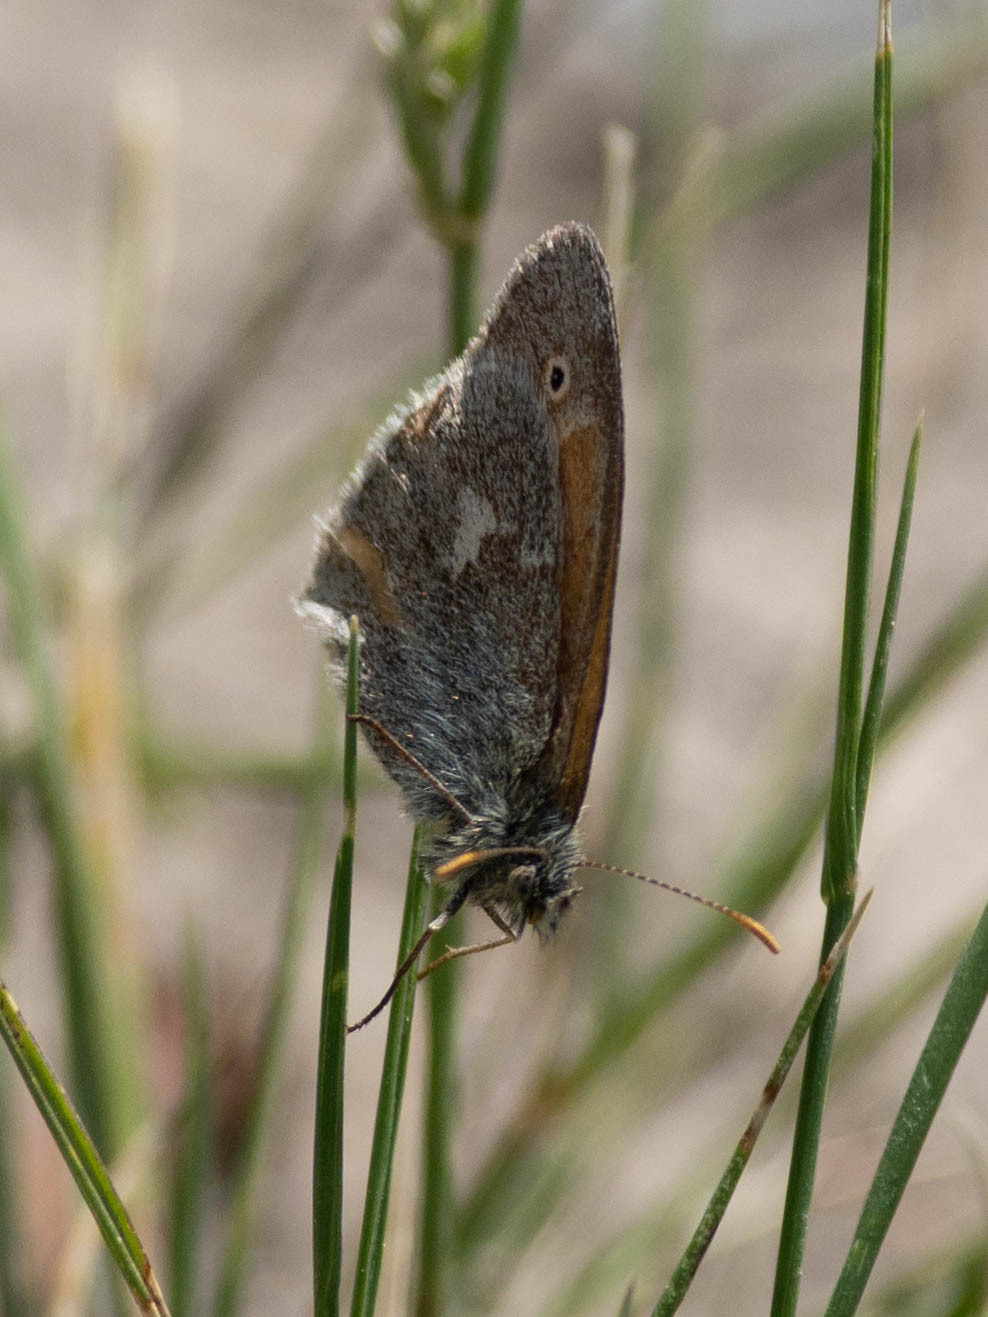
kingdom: Animalia
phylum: Arthropoda
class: Insecta
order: Lepidoptera
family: Nymphalidae
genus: Coenonympha
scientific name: Coenonympha california
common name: Common ringlet
